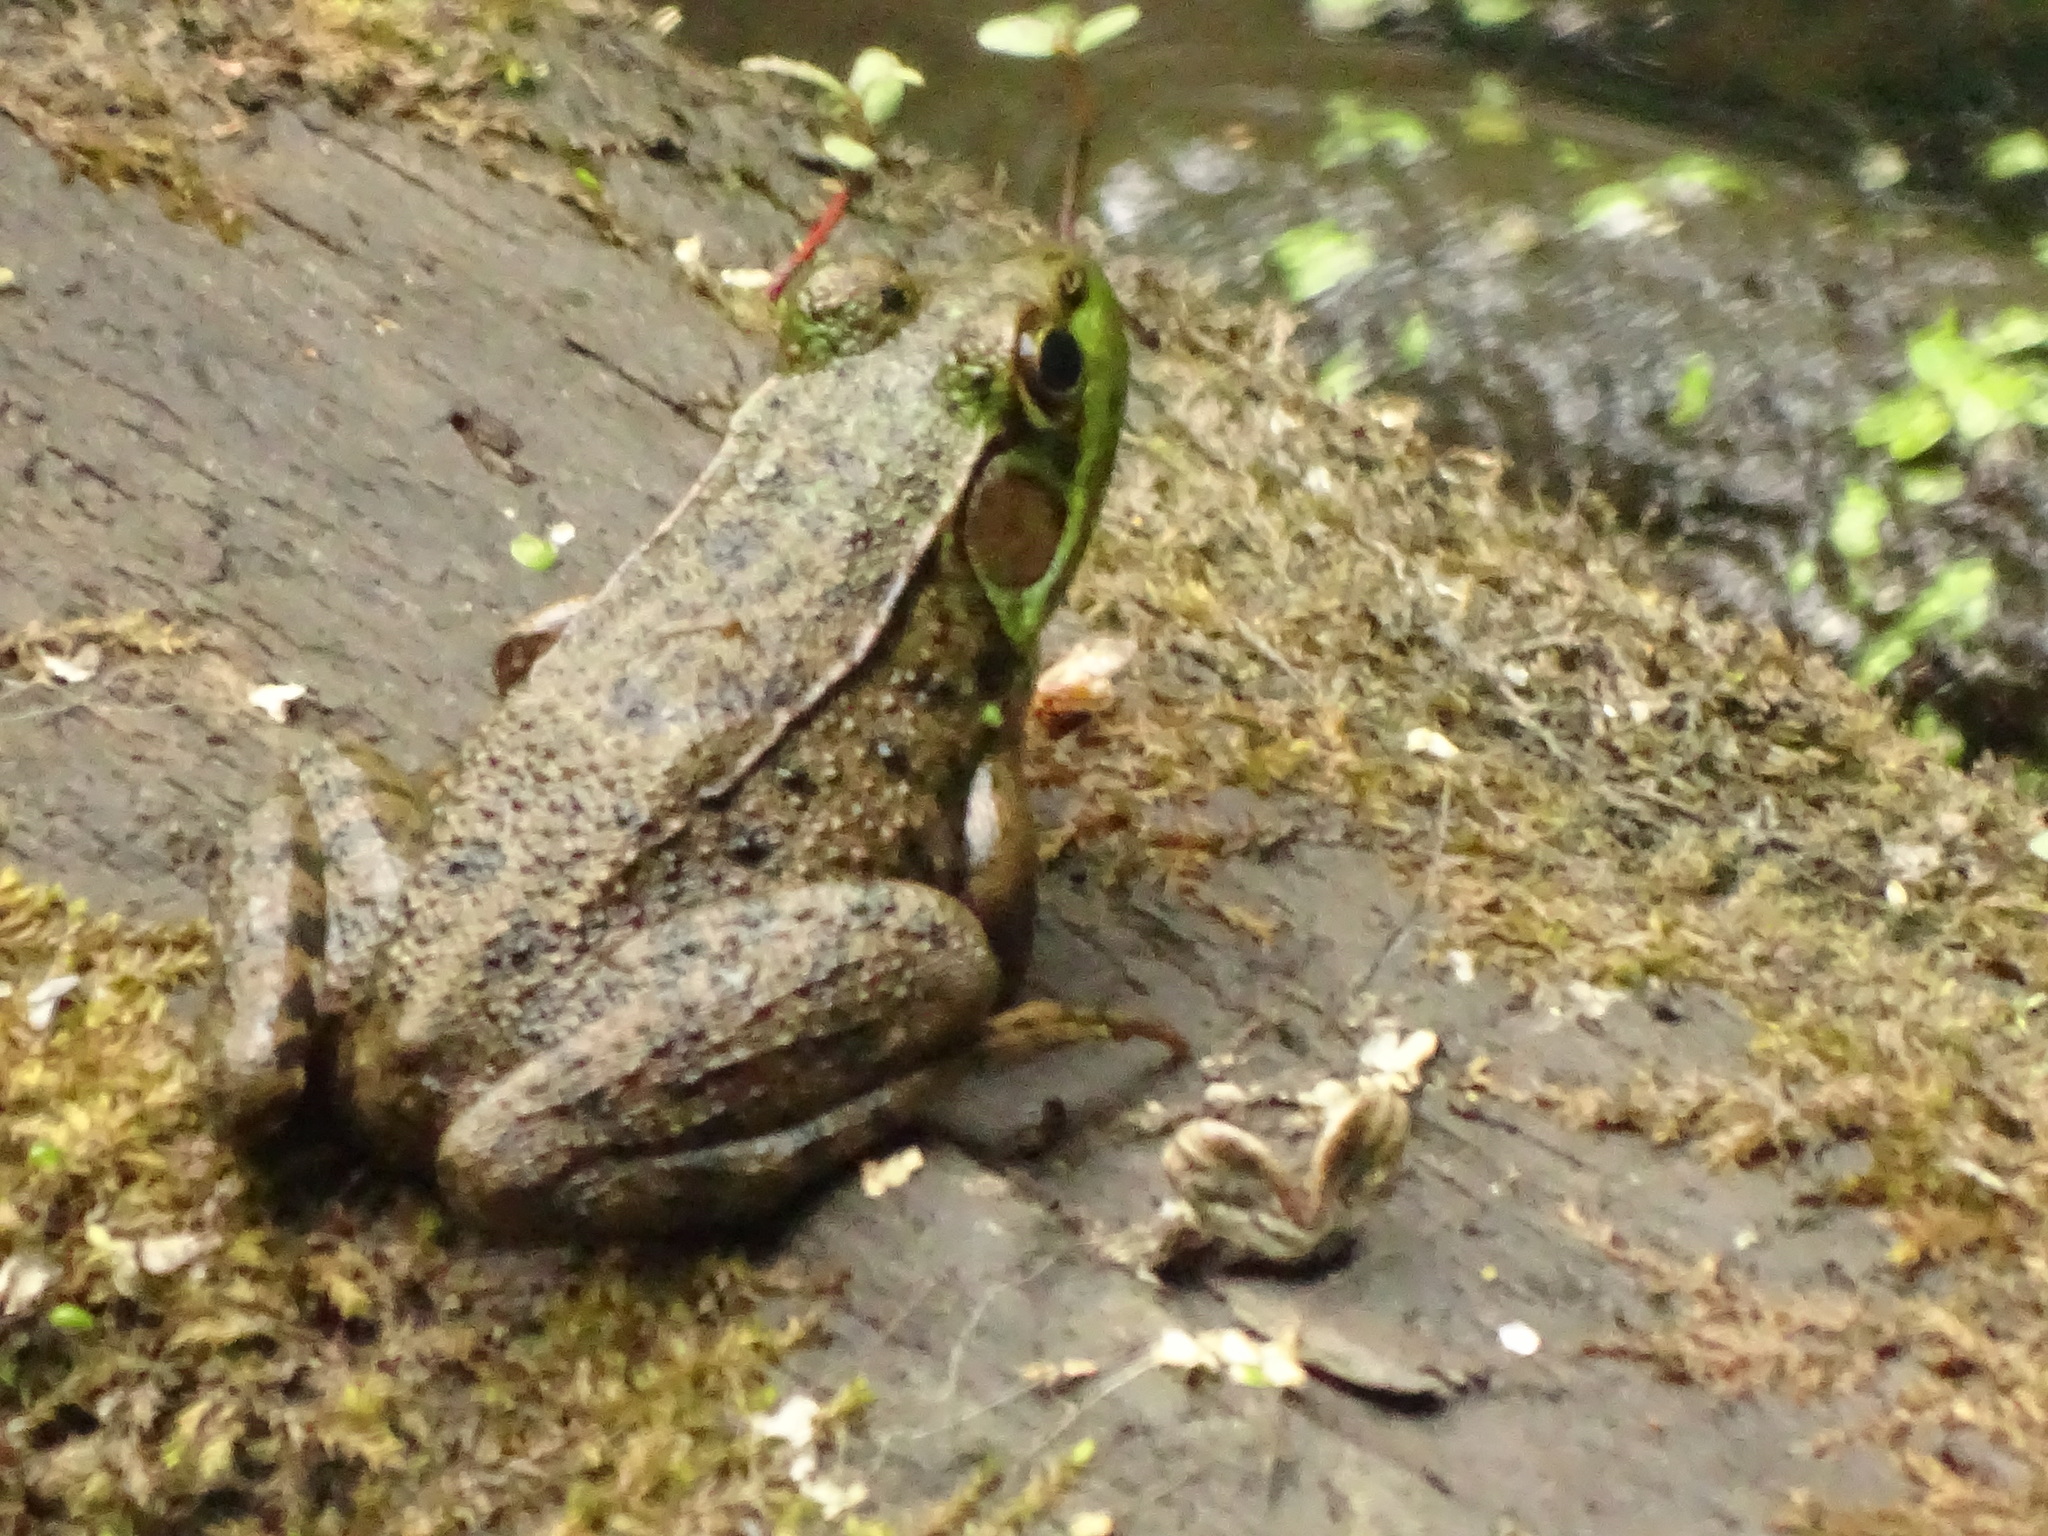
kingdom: Animalia
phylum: Chordata
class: Amphibia
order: Anura
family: Ranidae
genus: Lithobates
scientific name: Lithobates clamitans
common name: Green frog
